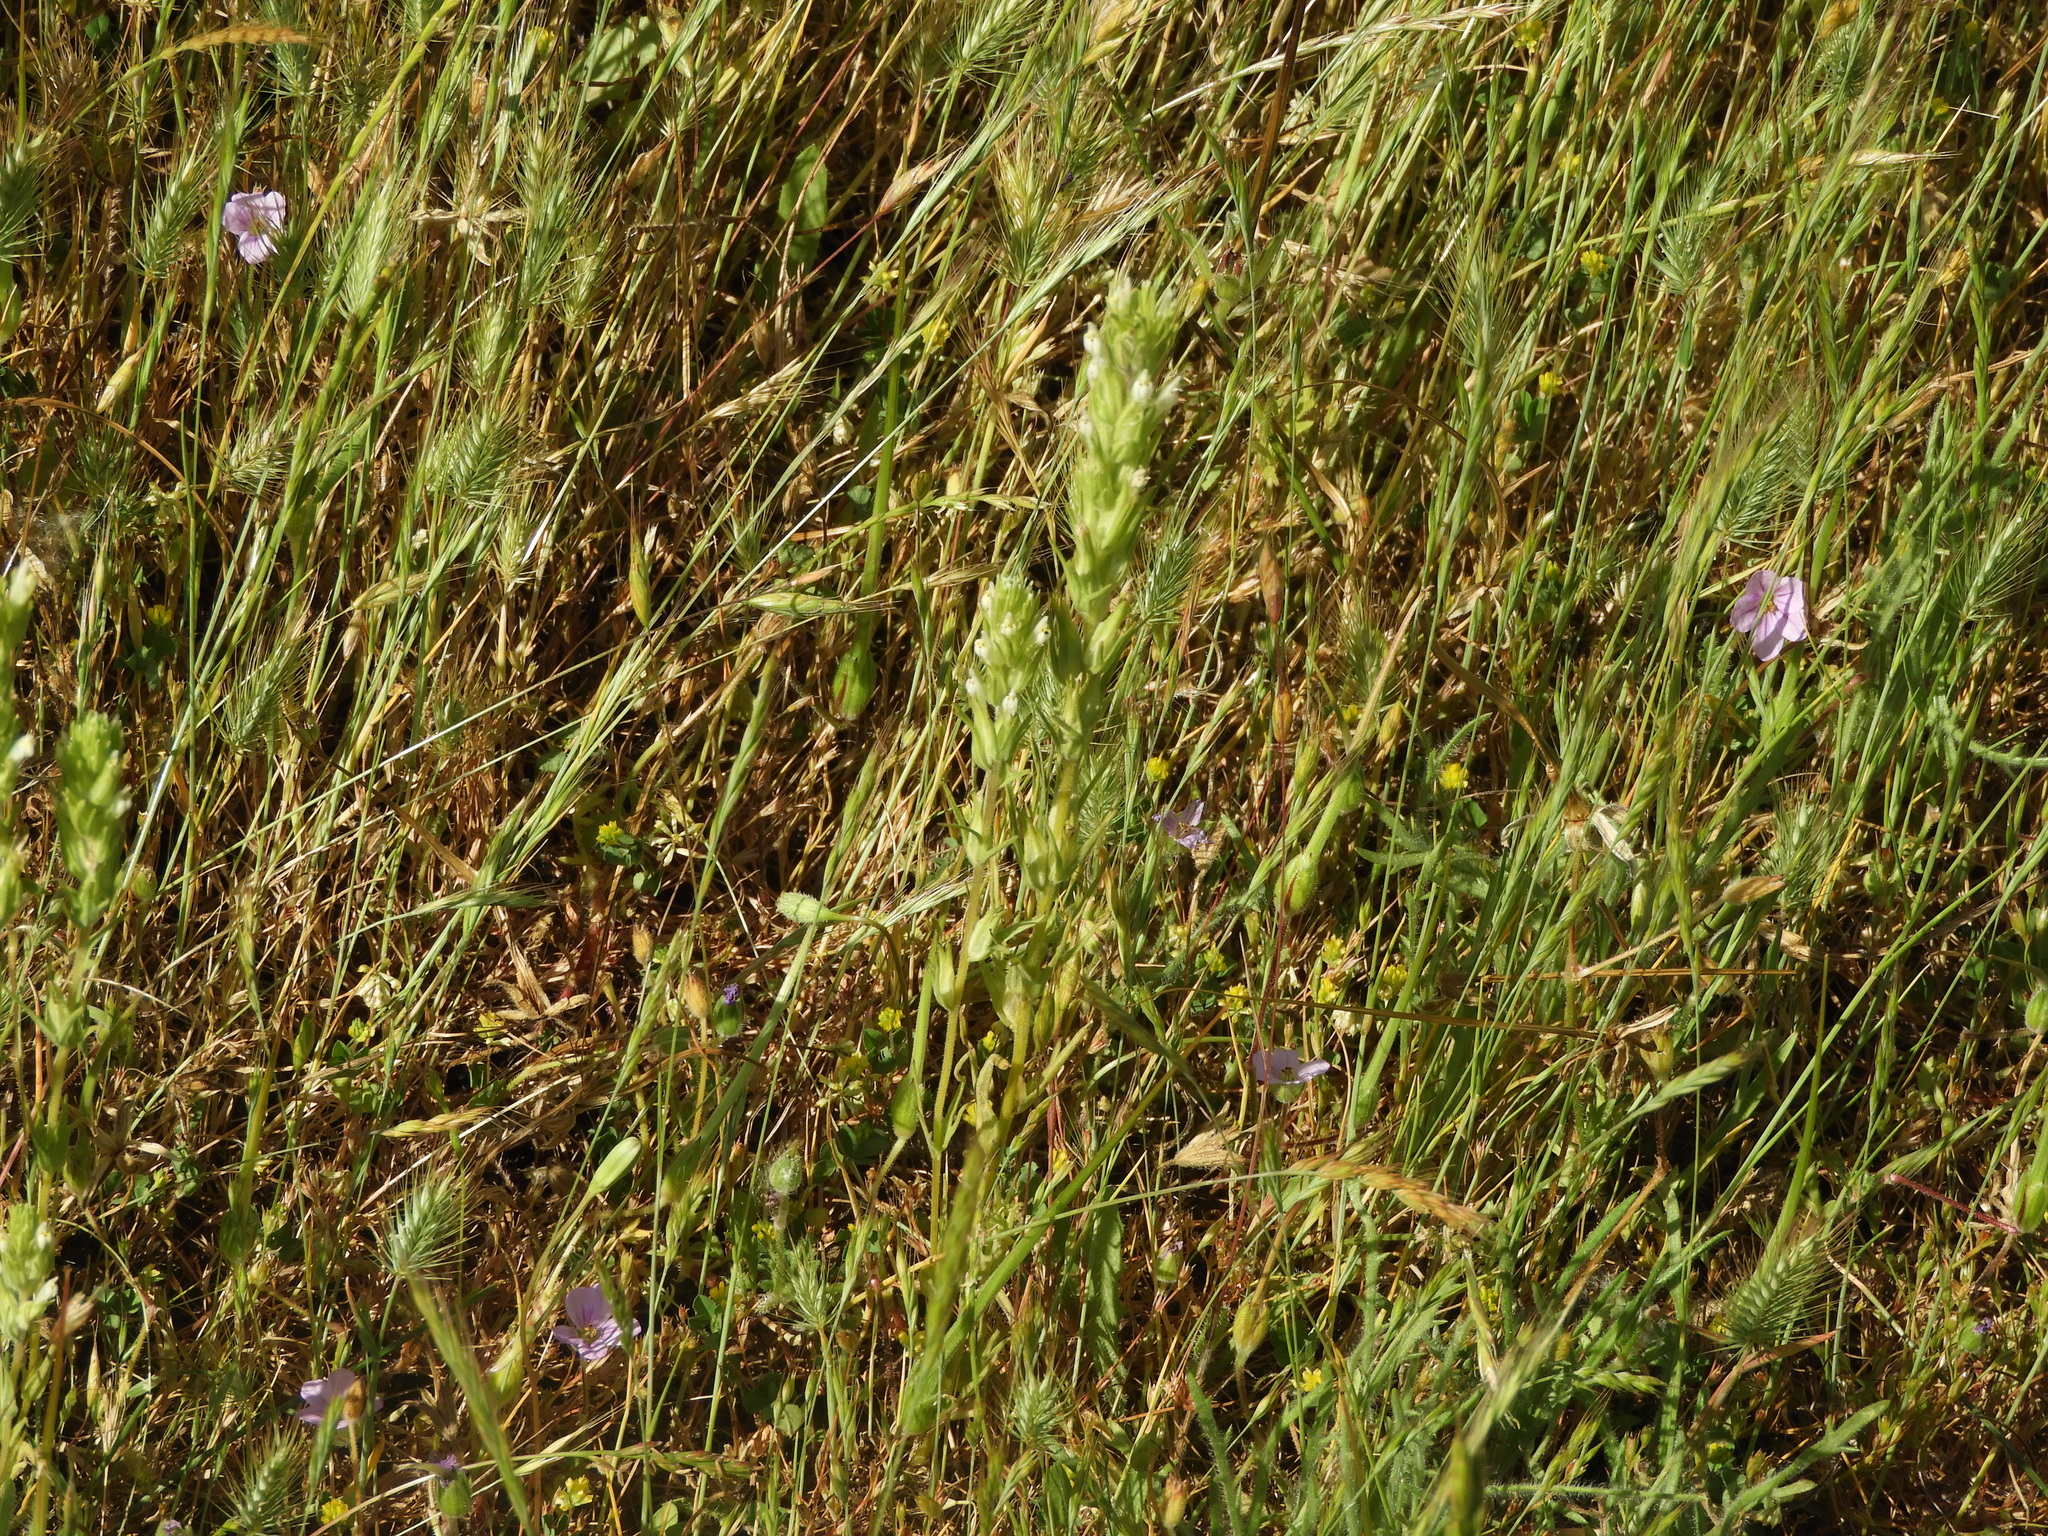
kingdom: Plantae
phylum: Tracheophyta
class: Magnoliopsida
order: Lamiales
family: Orobanchaceae
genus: Castilleja
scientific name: Castilleja attenuata
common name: Valley tassels
